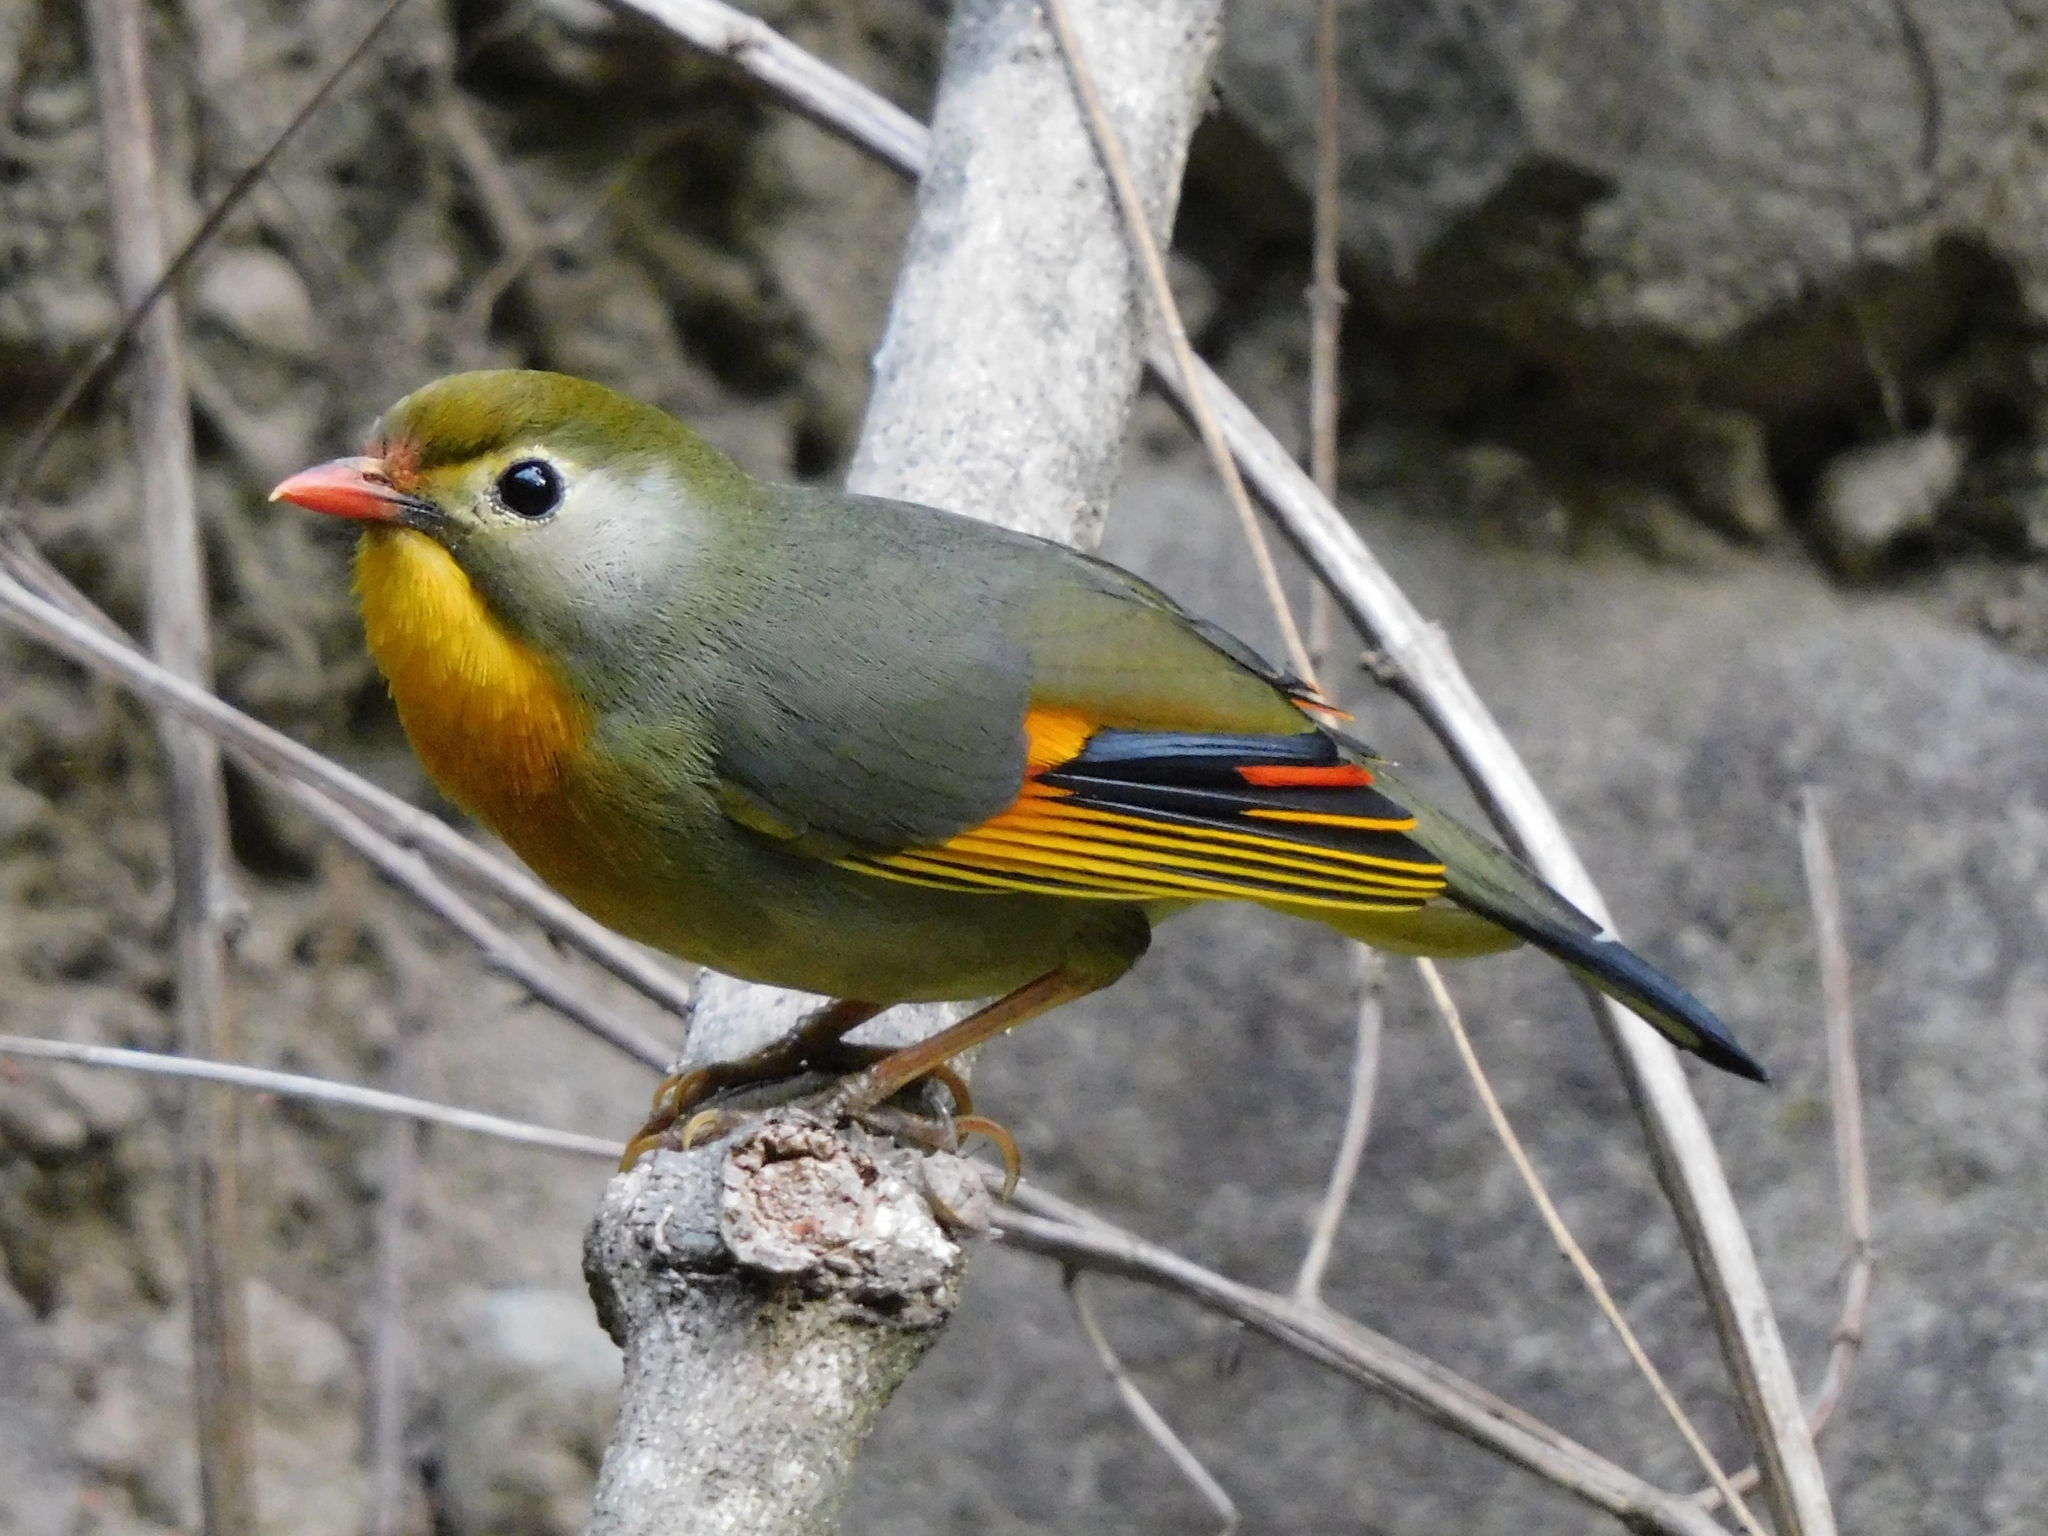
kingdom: Animalia
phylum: Chordata
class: Aves
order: Passeriformes
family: Leiothrichidae
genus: Leiothrix
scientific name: Leiothrix lutea
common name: Red-billed leiothrix
